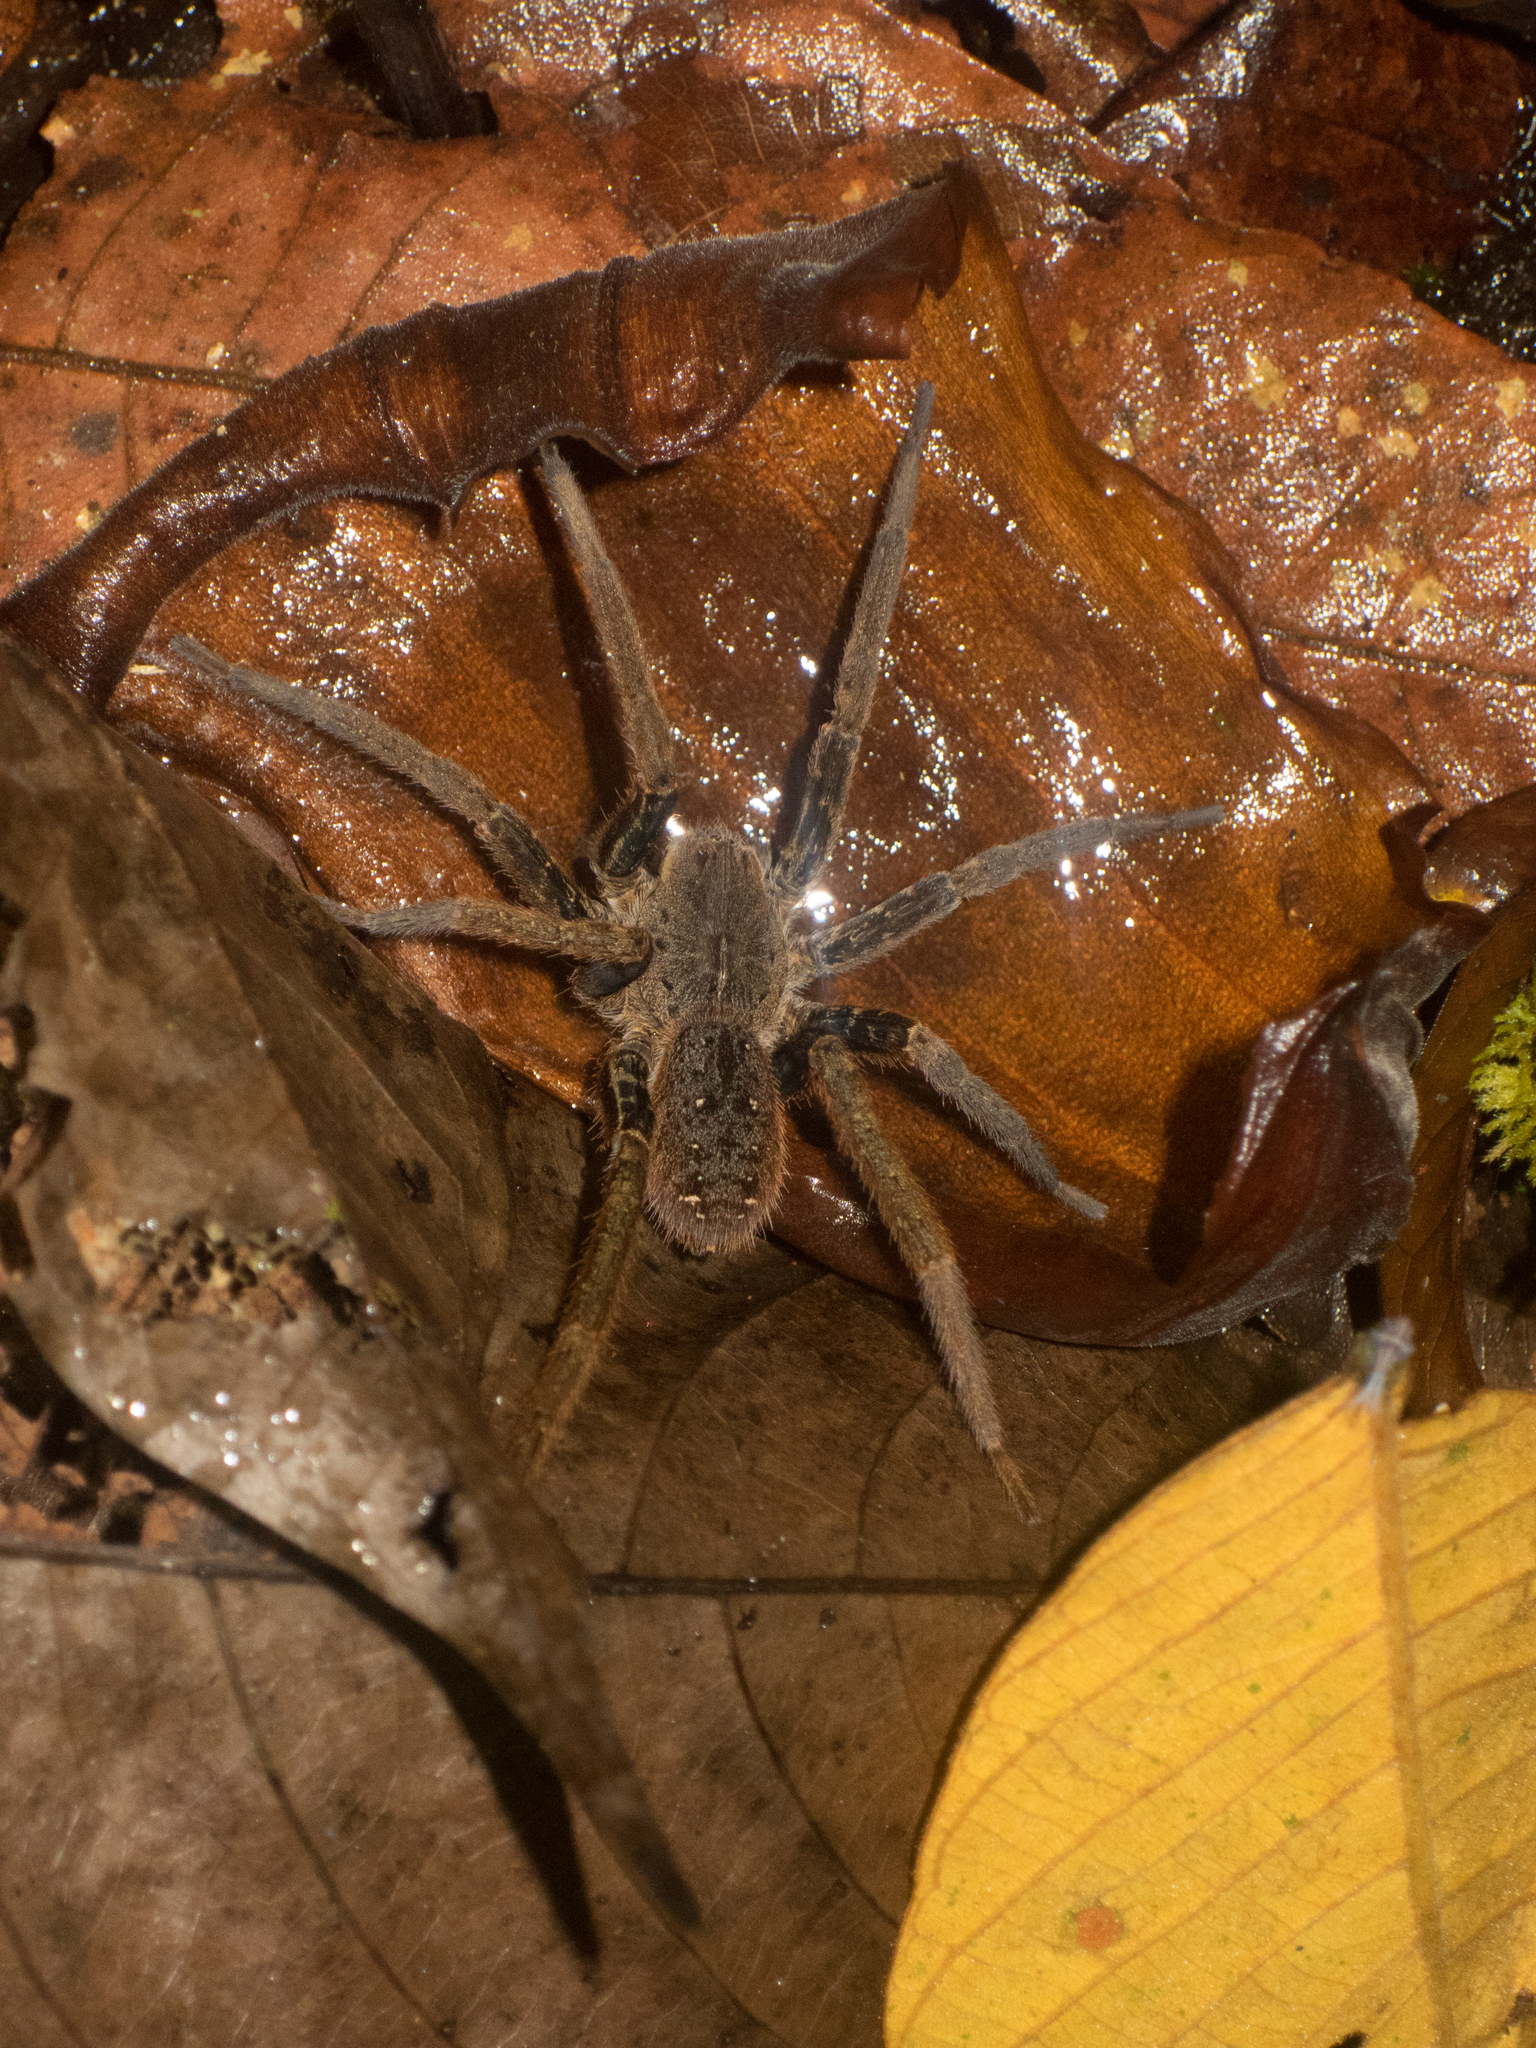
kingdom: Animalia
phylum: Arthropoda
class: Arachnida
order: Araneae
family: Ctenidae
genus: Ancylometes
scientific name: Ancylometes bogotensis
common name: Wandering spiders
